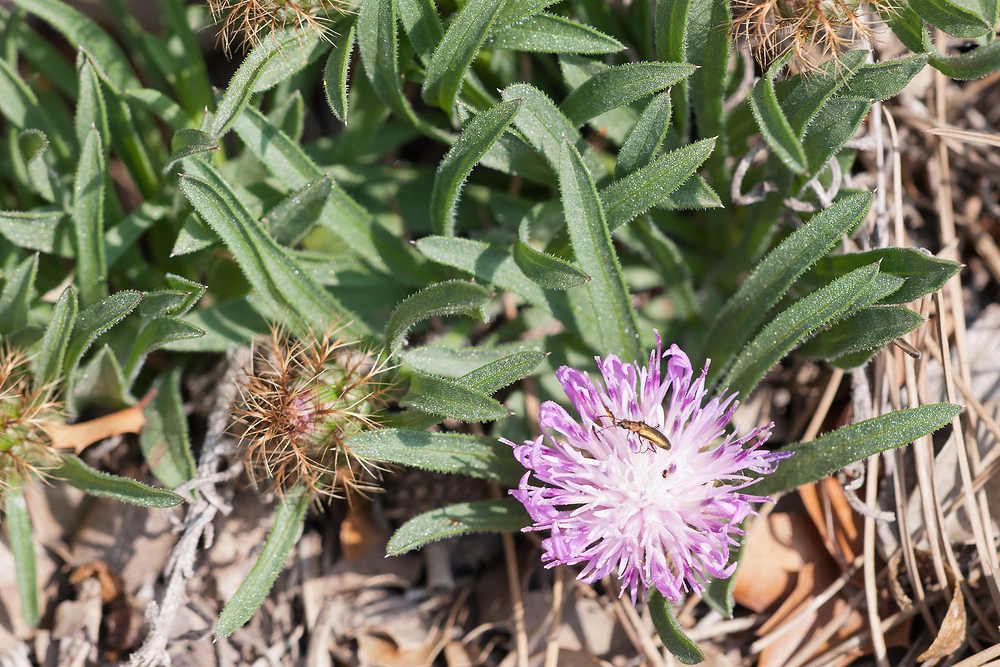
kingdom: Plantae
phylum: Tracheophyta
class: Magnoliopsida
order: Asterales
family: Asteraceae
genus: Centaurea
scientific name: Centaurea linifolia
